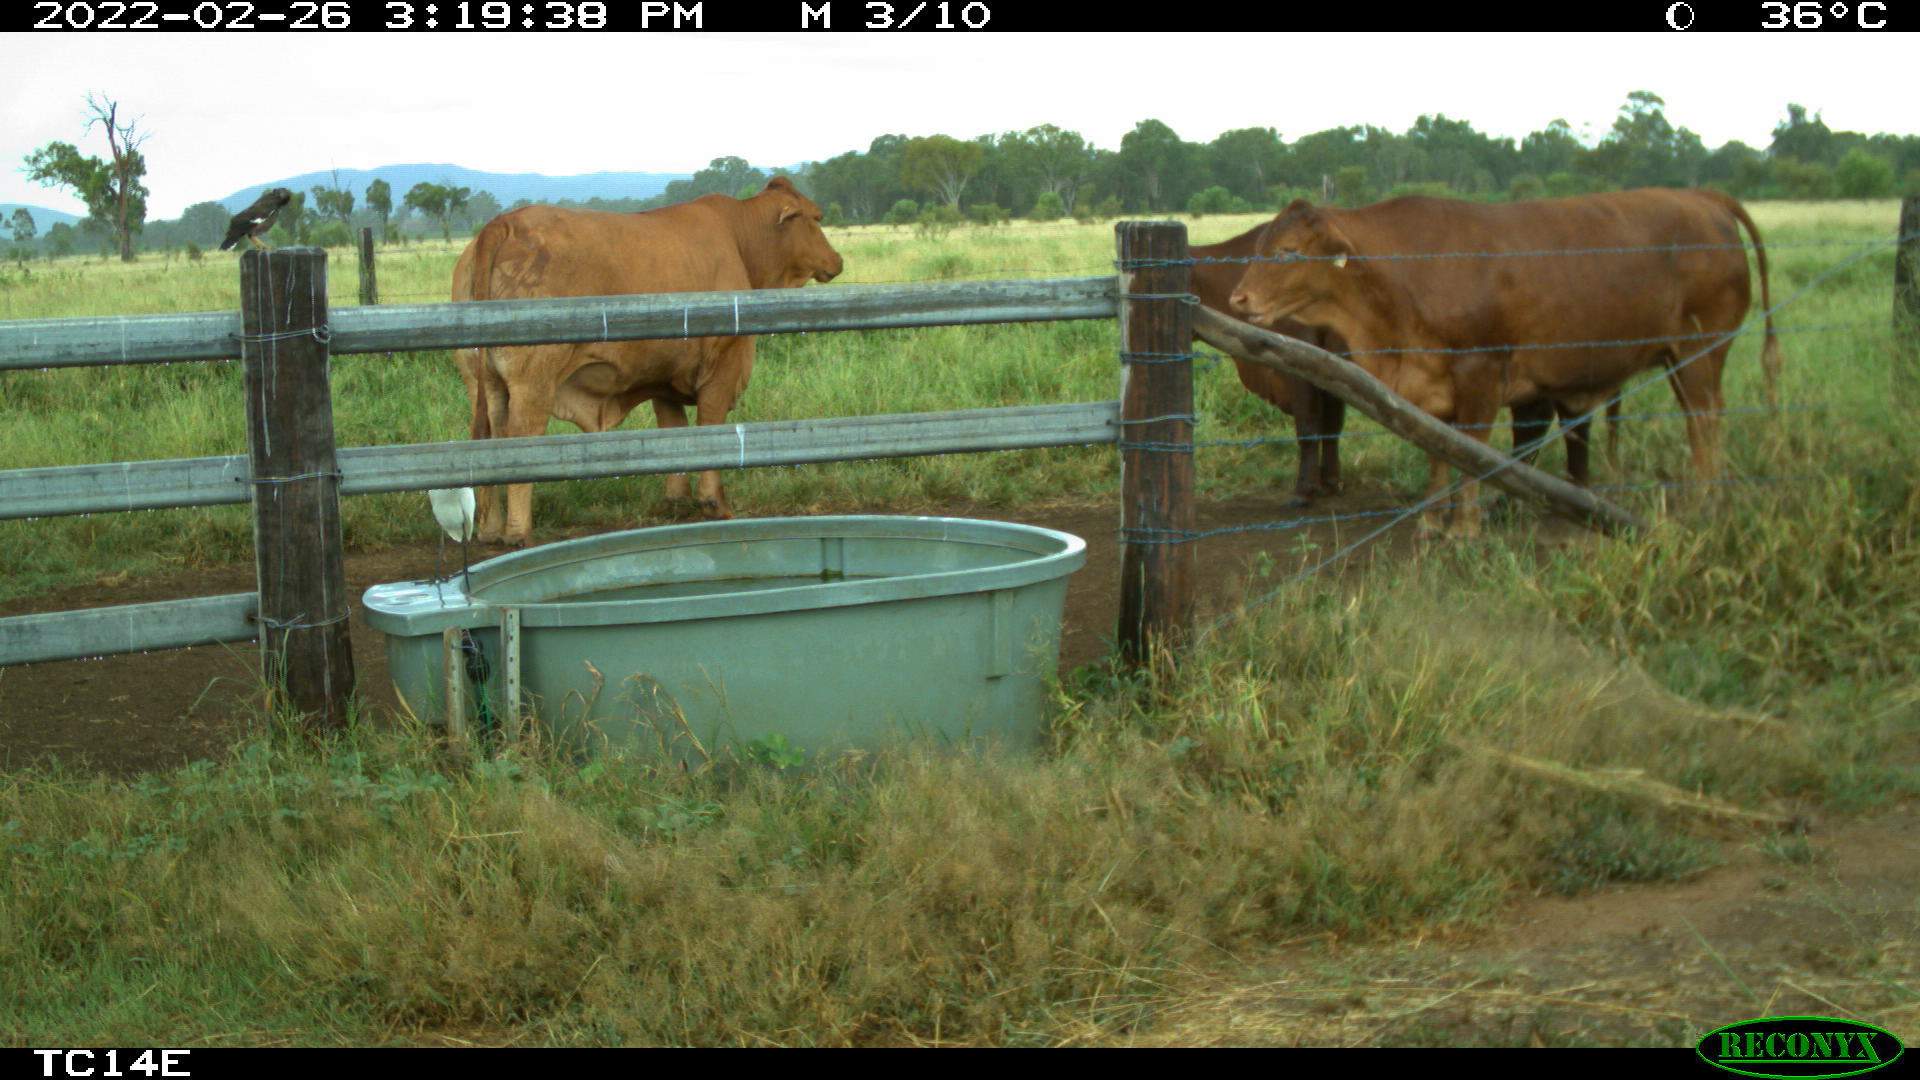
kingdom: Animalia
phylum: Chordata
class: Aves
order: Passeriformes
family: Sturnidae
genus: Acridotheres
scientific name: Acridotheres tristis
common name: Common myna
